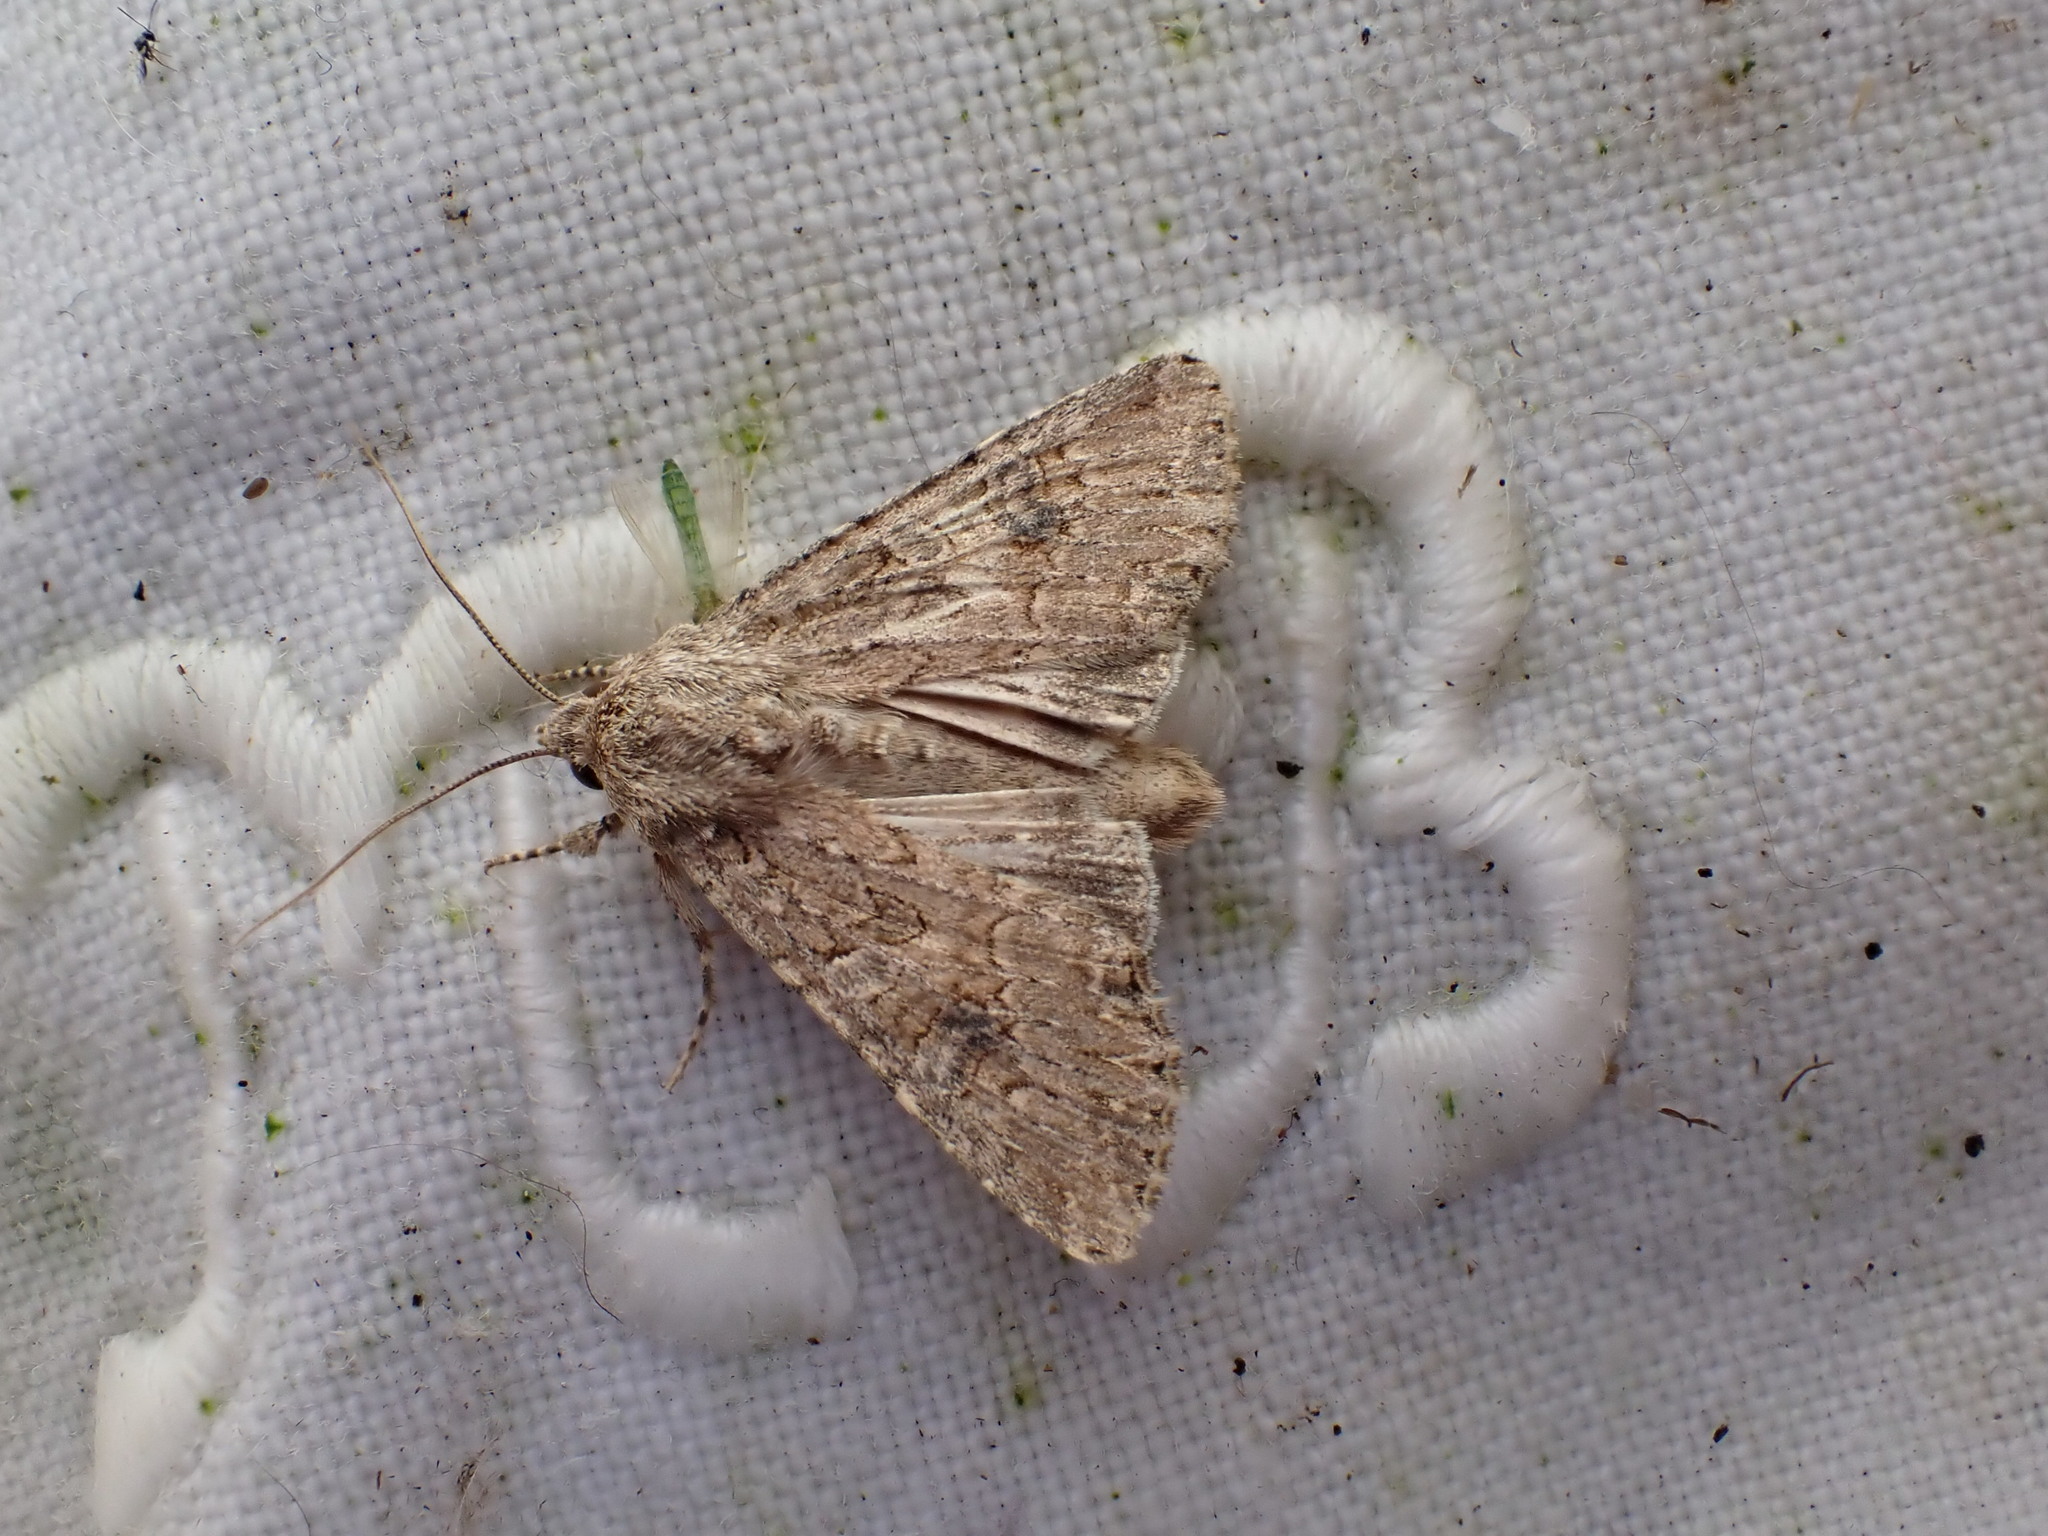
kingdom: Animalia
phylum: Arthropoda
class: Insecta
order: Lepidoptera
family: Noctuidae
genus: Anarta
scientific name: Anarta trifolii
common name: Clover cutworm moth
